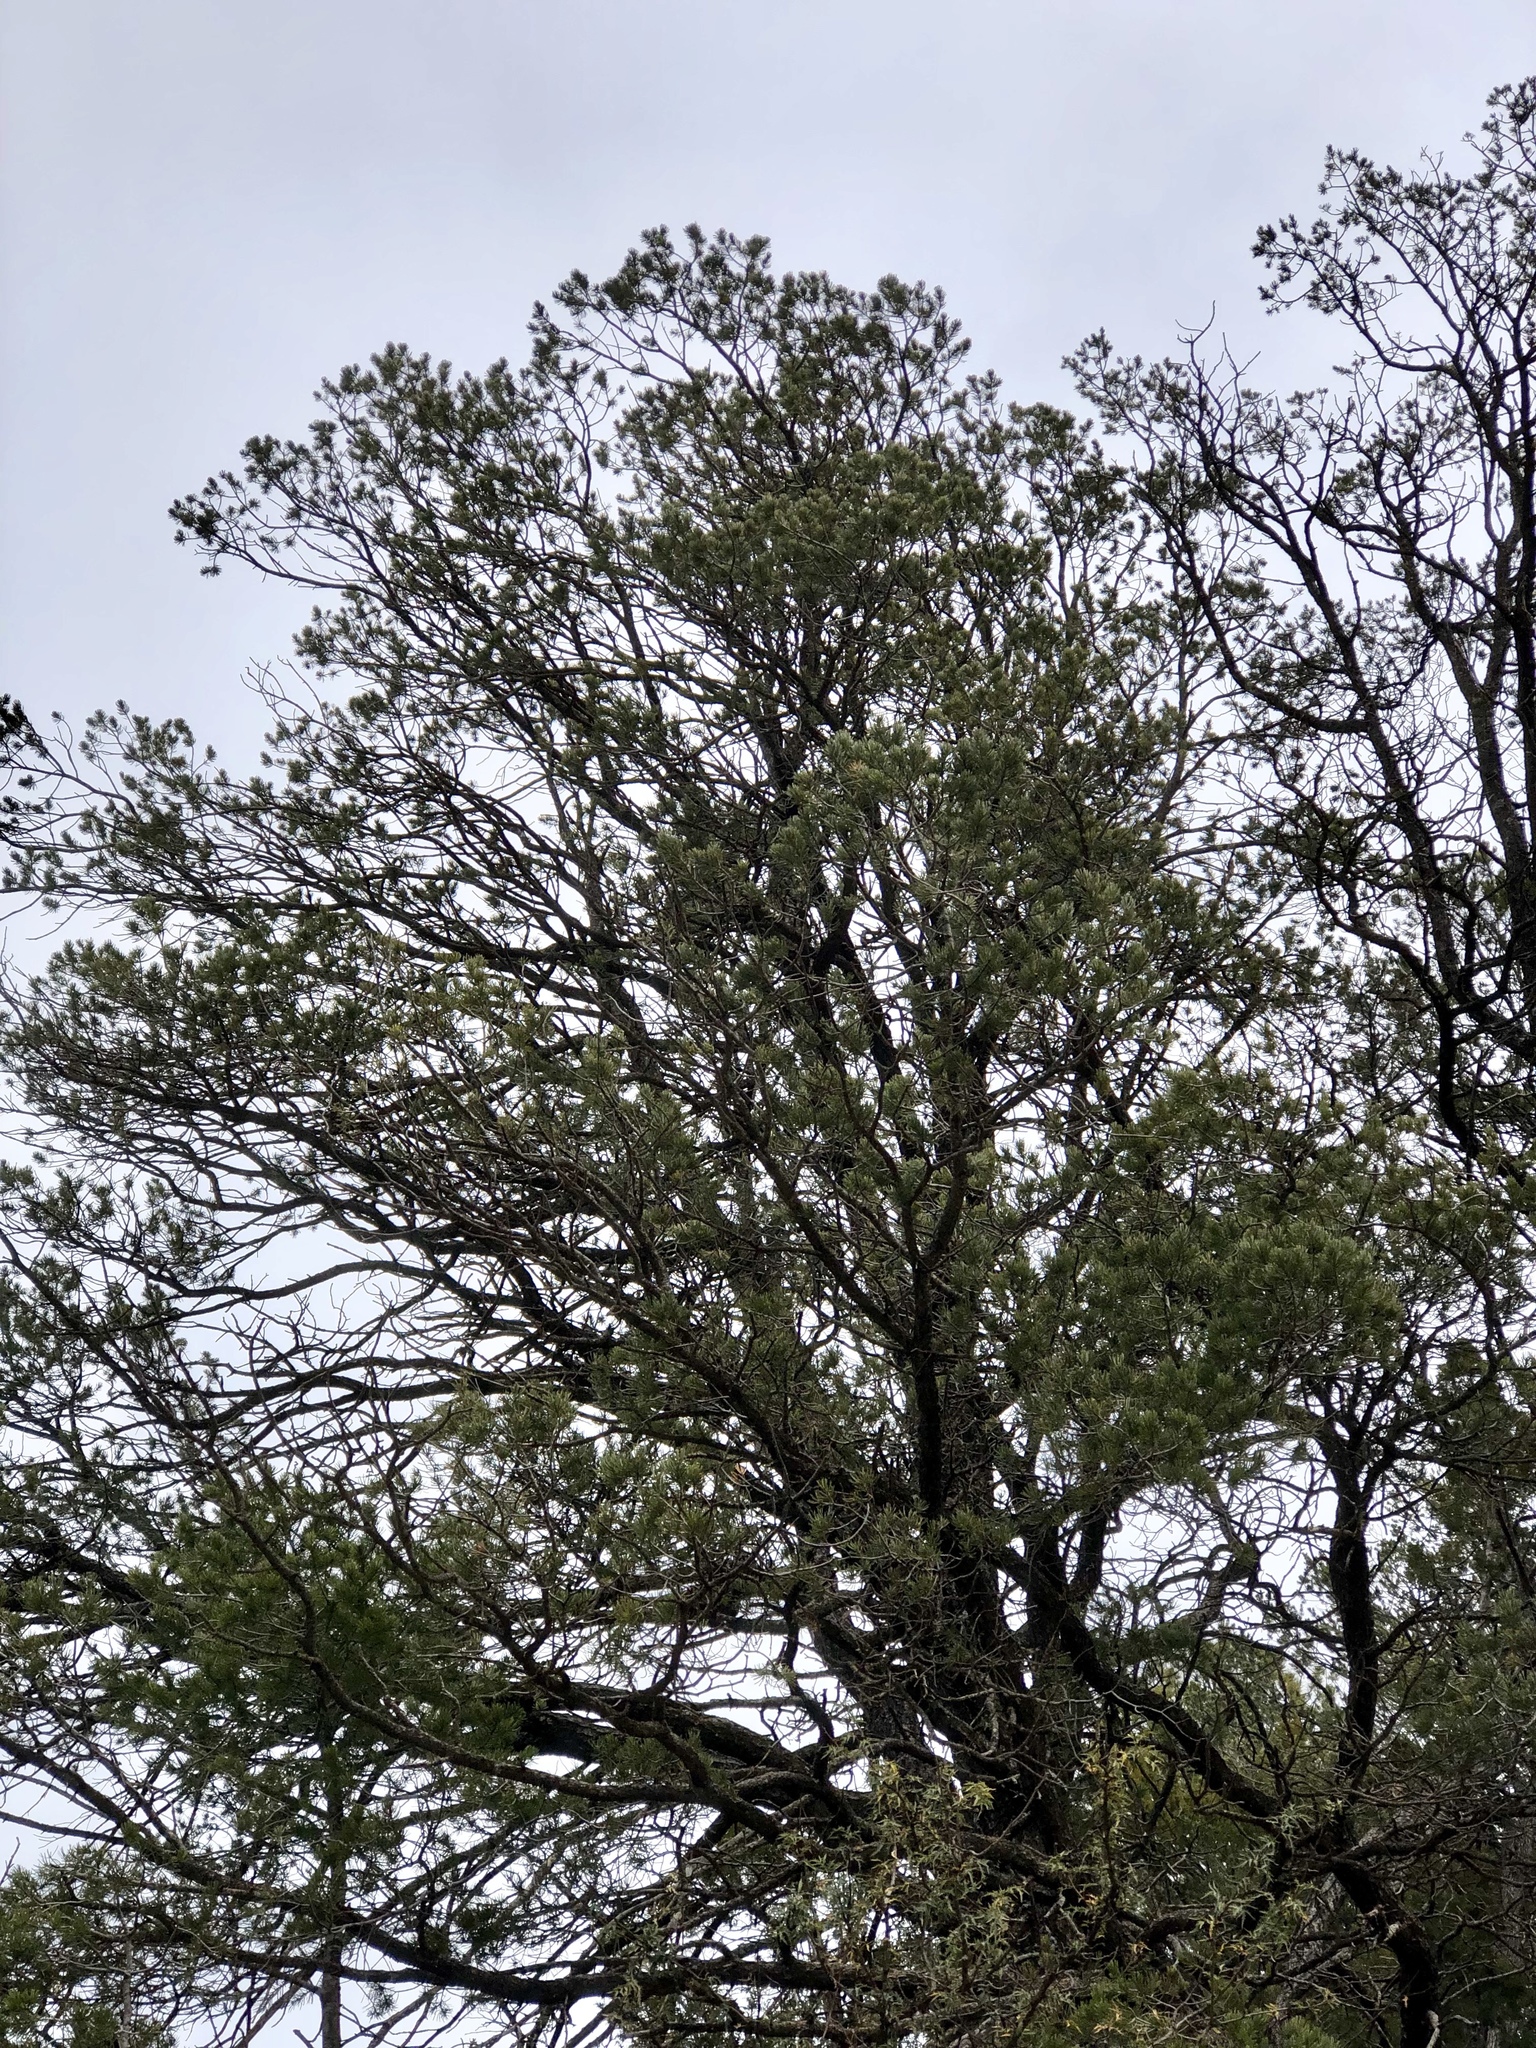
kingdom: Plantae
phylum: Tracheophyta
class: Pinopsida
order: Pinales
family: Pinaceae
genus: Pinus
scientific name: Pinus edulis
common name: Colorado pinyon
